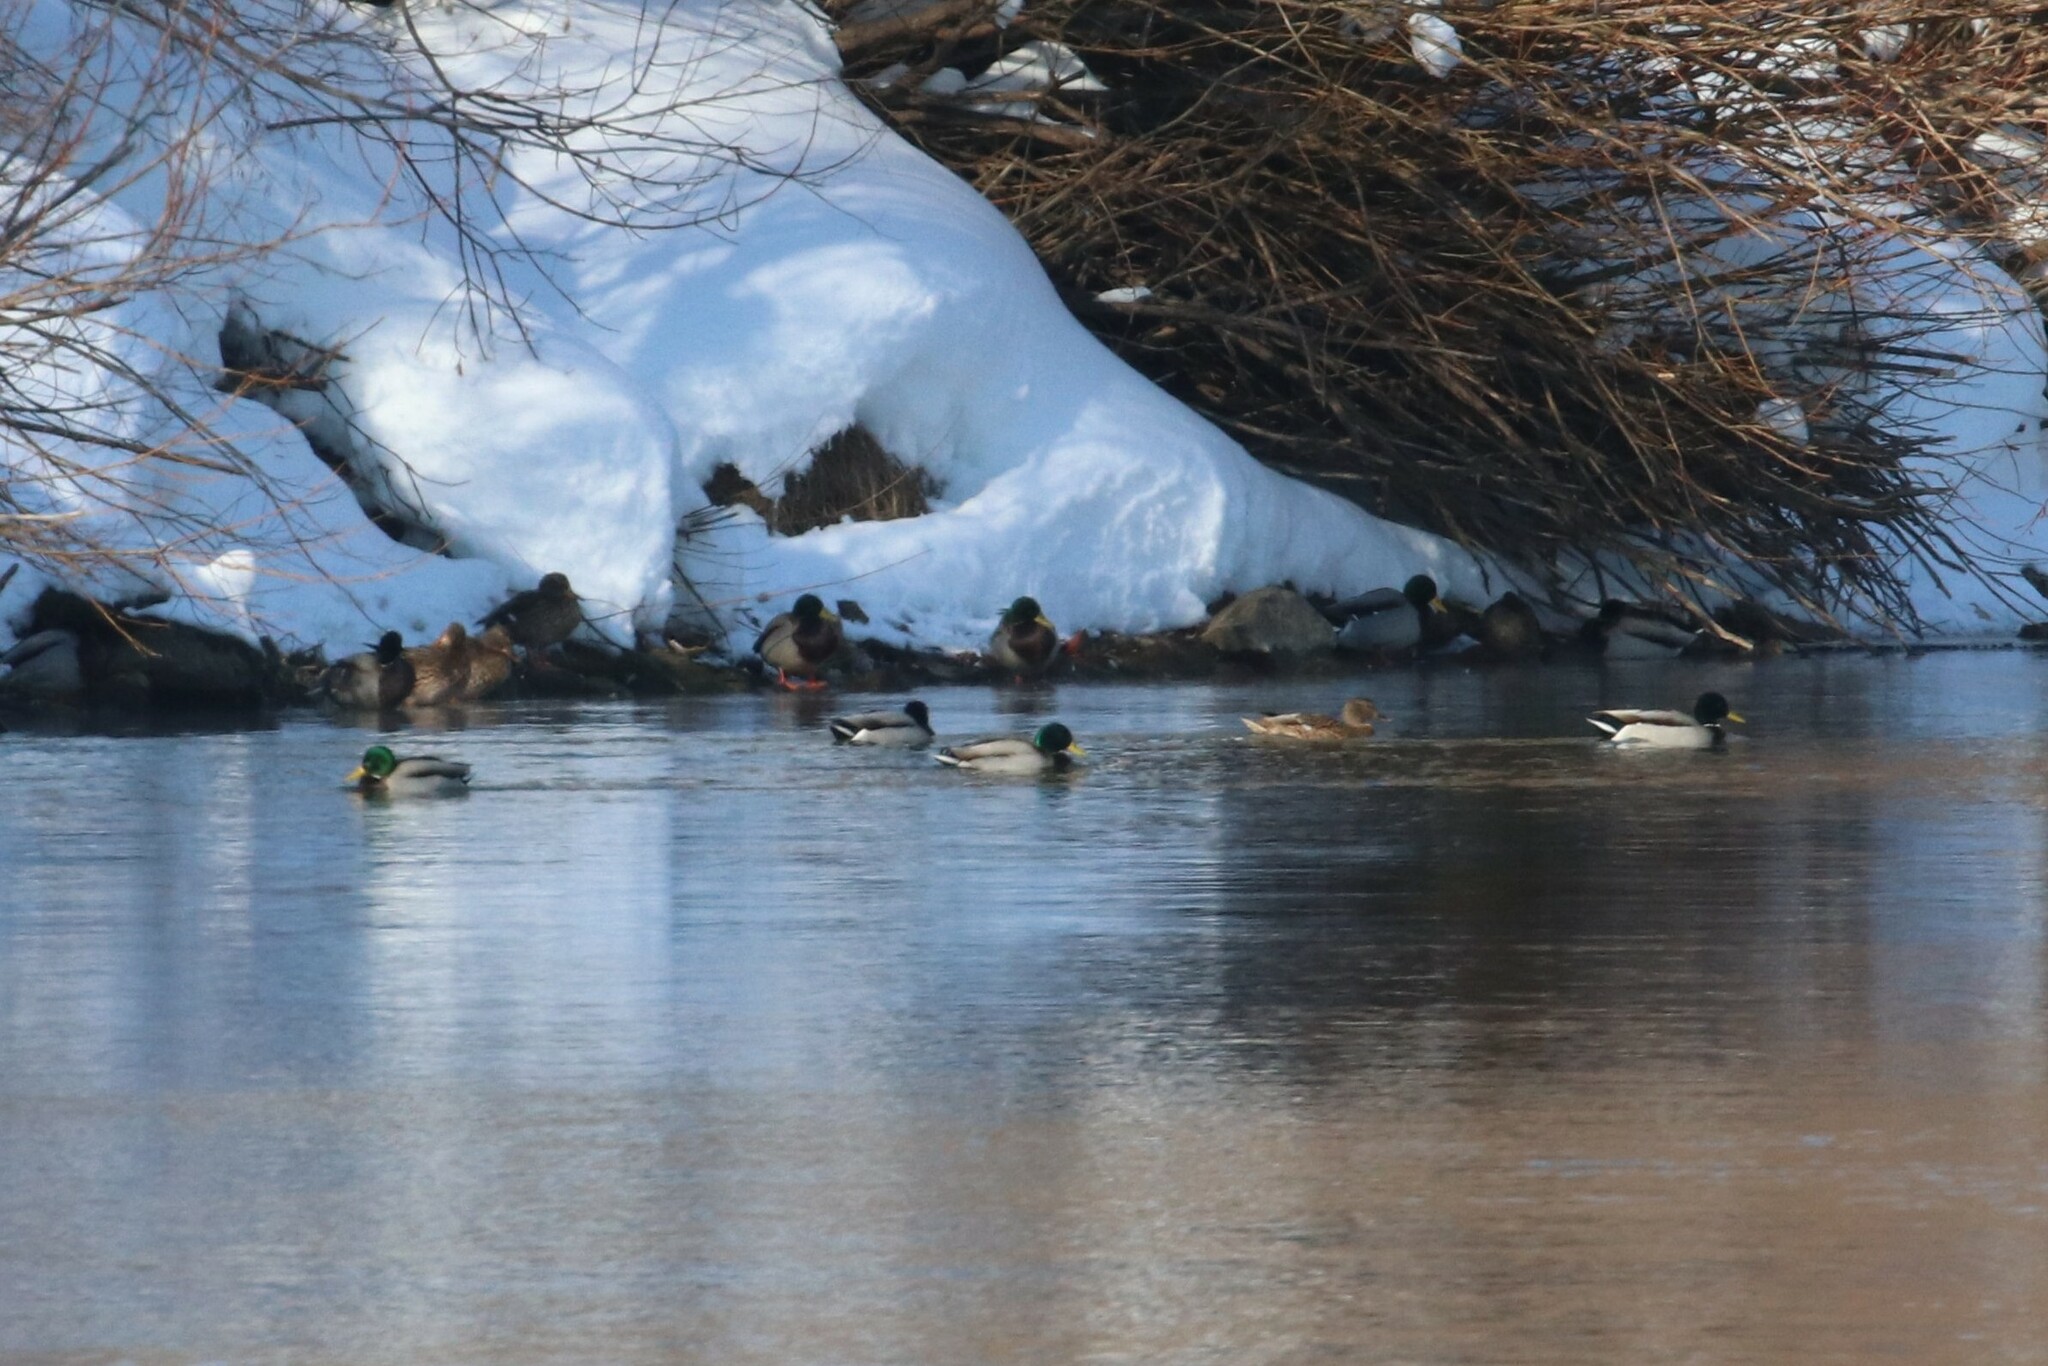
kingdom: Animalia
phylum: Chordata
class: Aves
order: Anseriformes
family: Anatidae
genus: Anas
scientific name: Anas platyrhynchos
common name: Mallard
